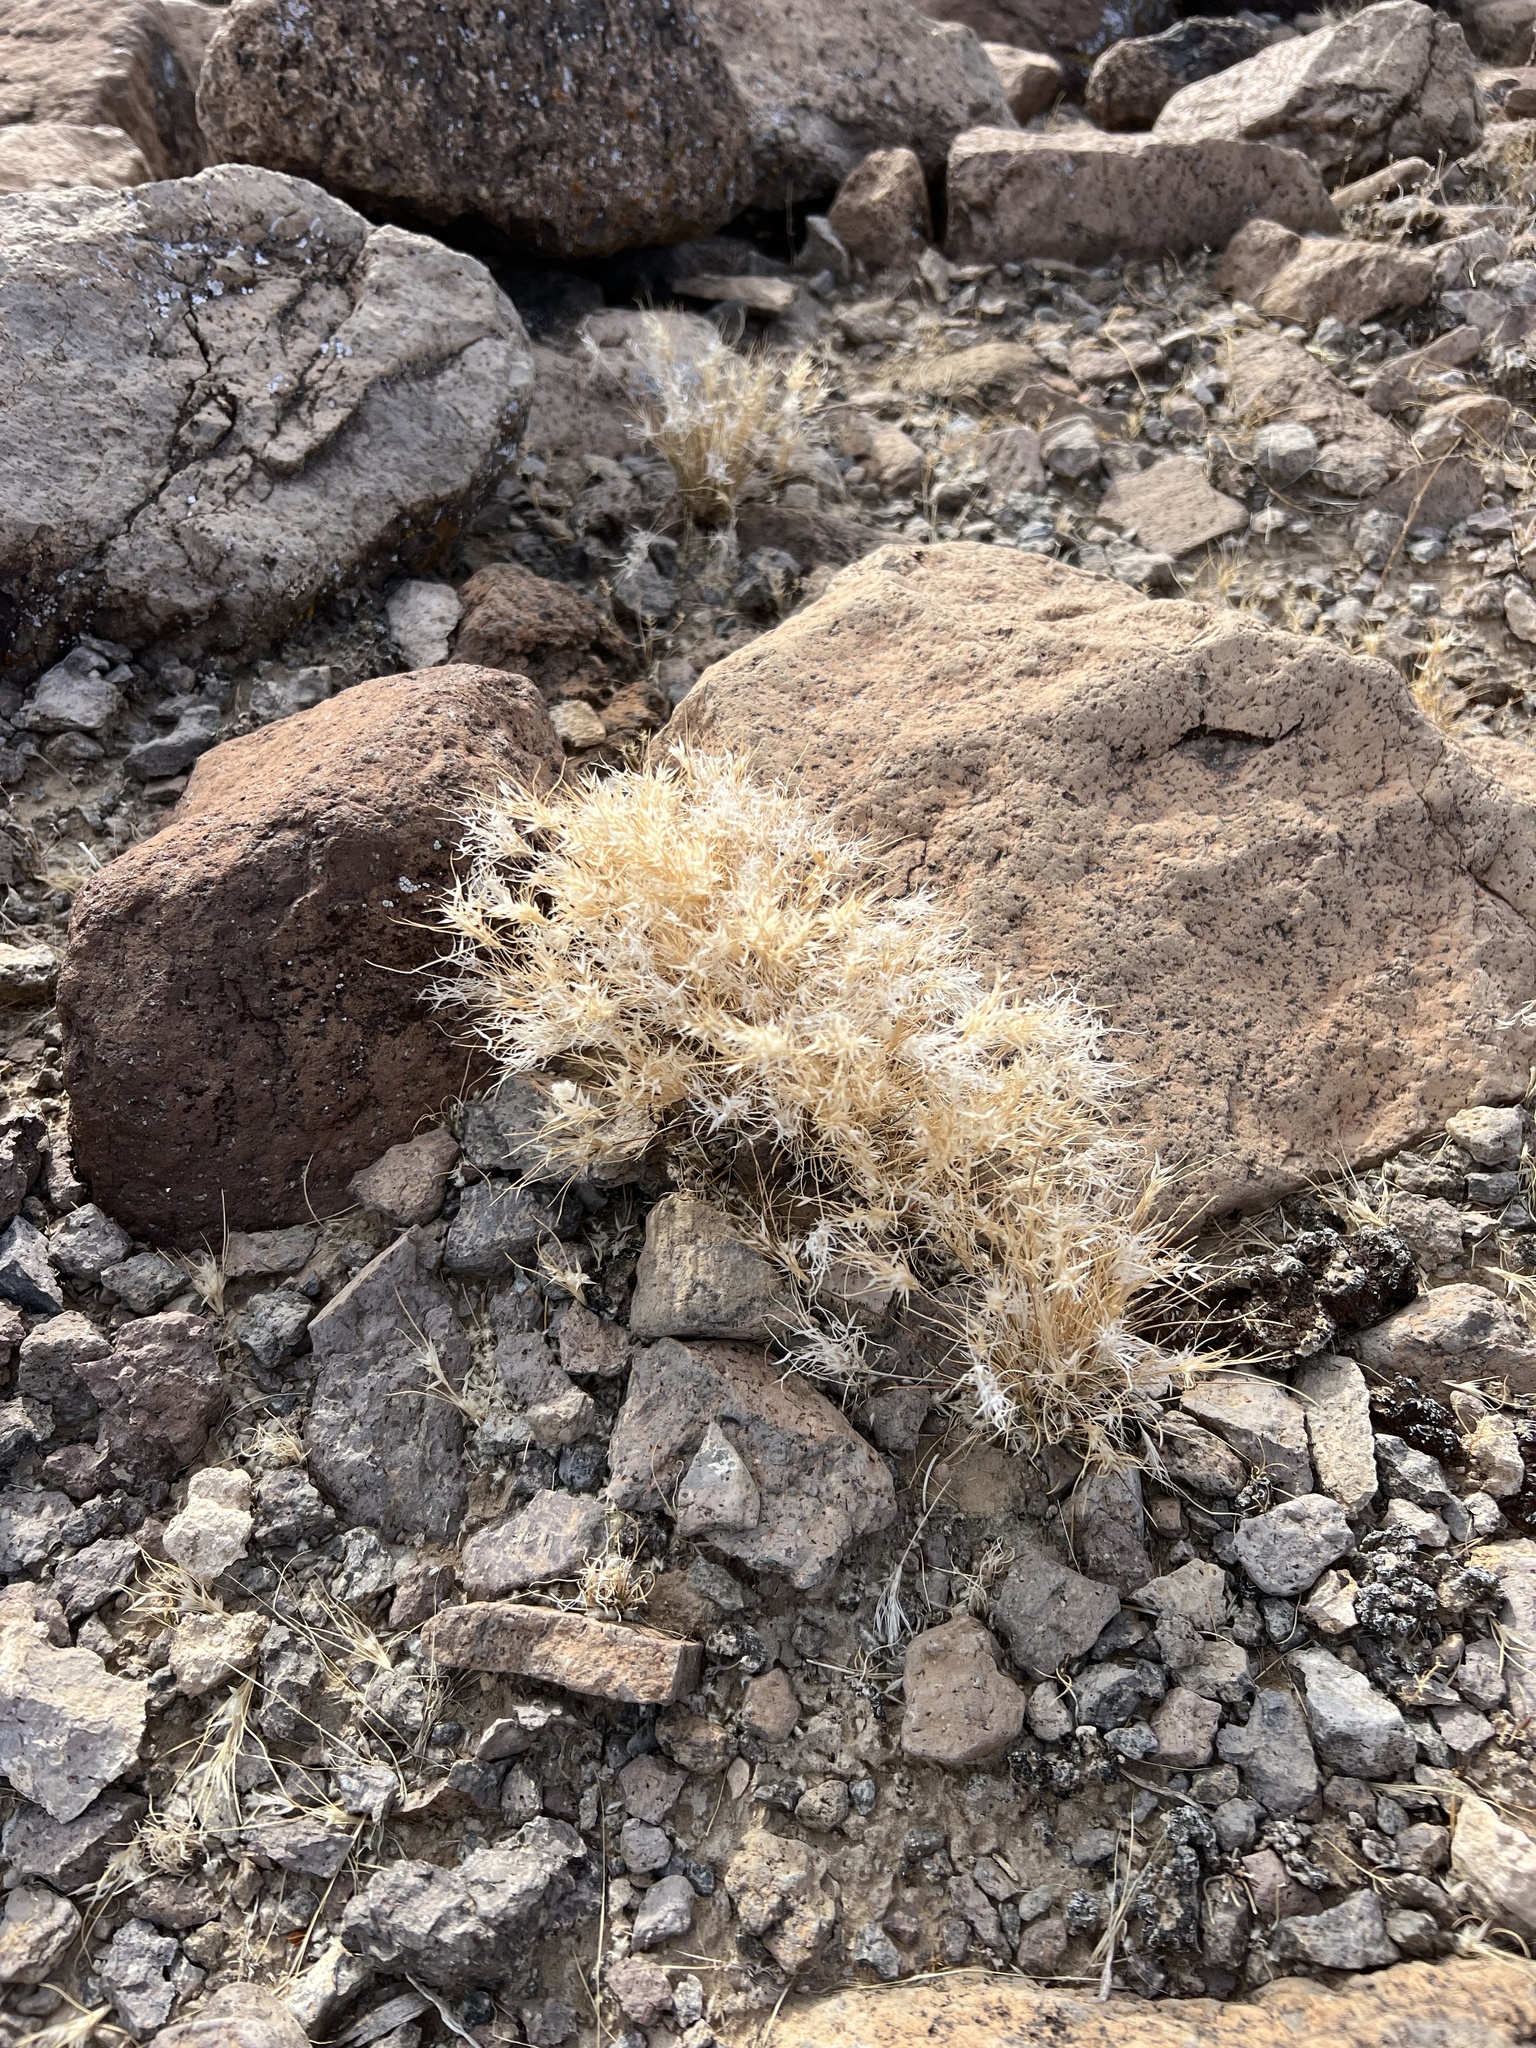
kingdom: Plantae
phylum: Tracheophyta
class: Liliopsida
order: Poales
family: Poaceae
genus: Dasyochloa
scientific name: Dasyochloa pulchella
